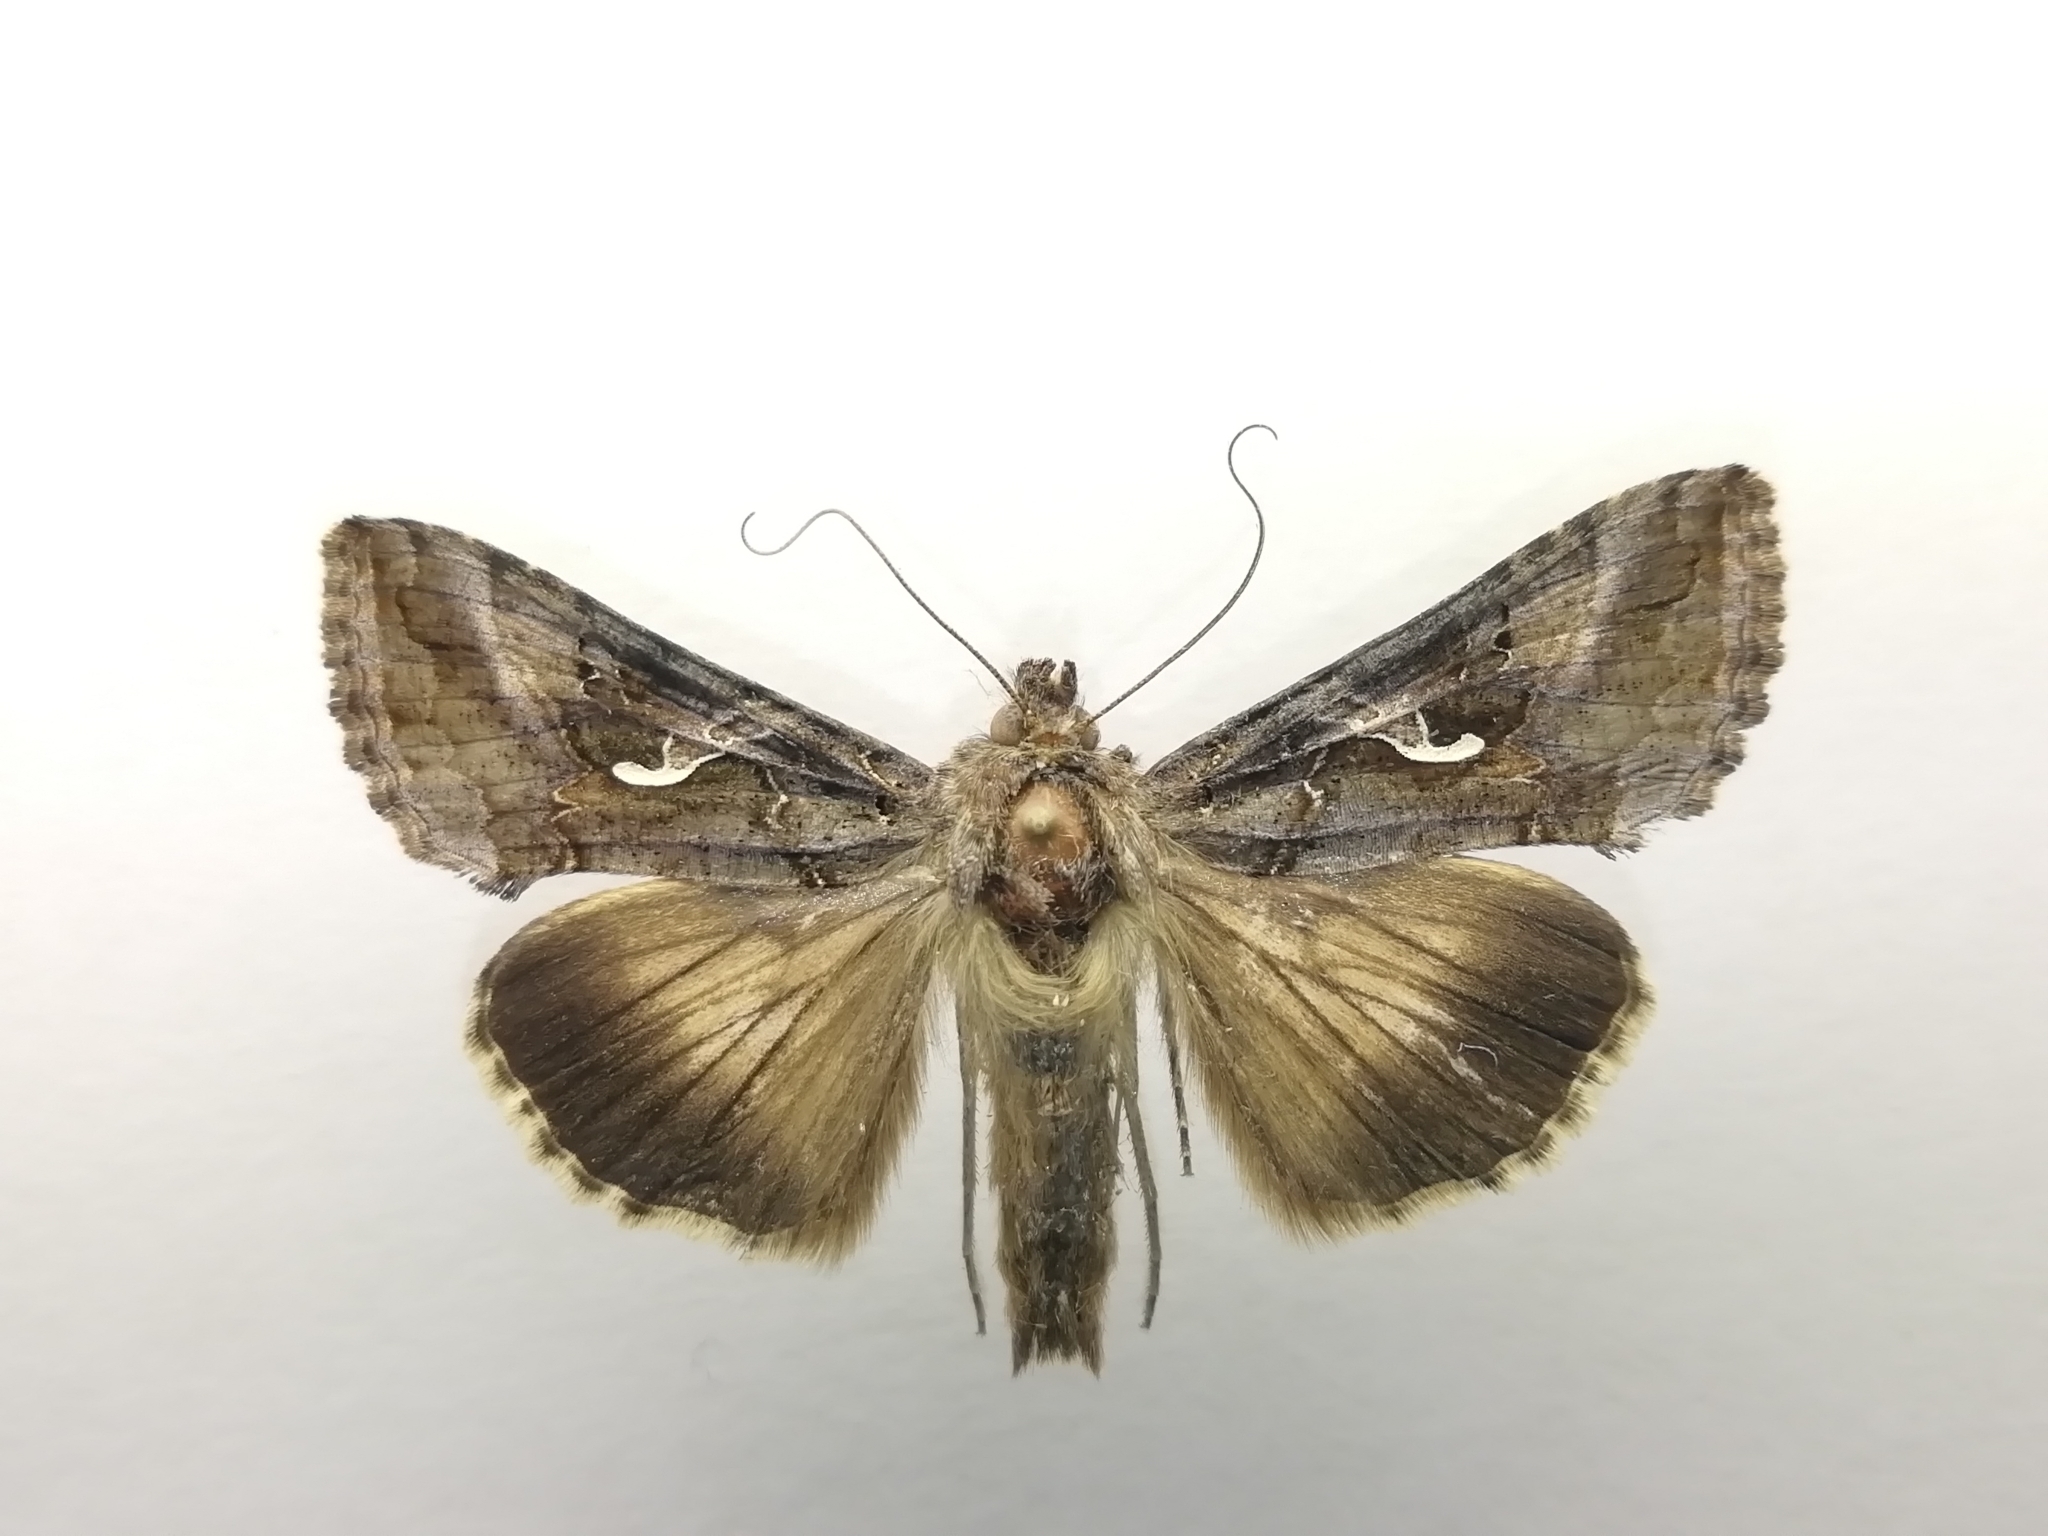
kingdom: Animalia
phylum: Arthropoda
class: Insecta
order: Lepidoptera
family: Noctuidae
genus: Autographa
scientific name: Autographa gamma
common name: Silver y
